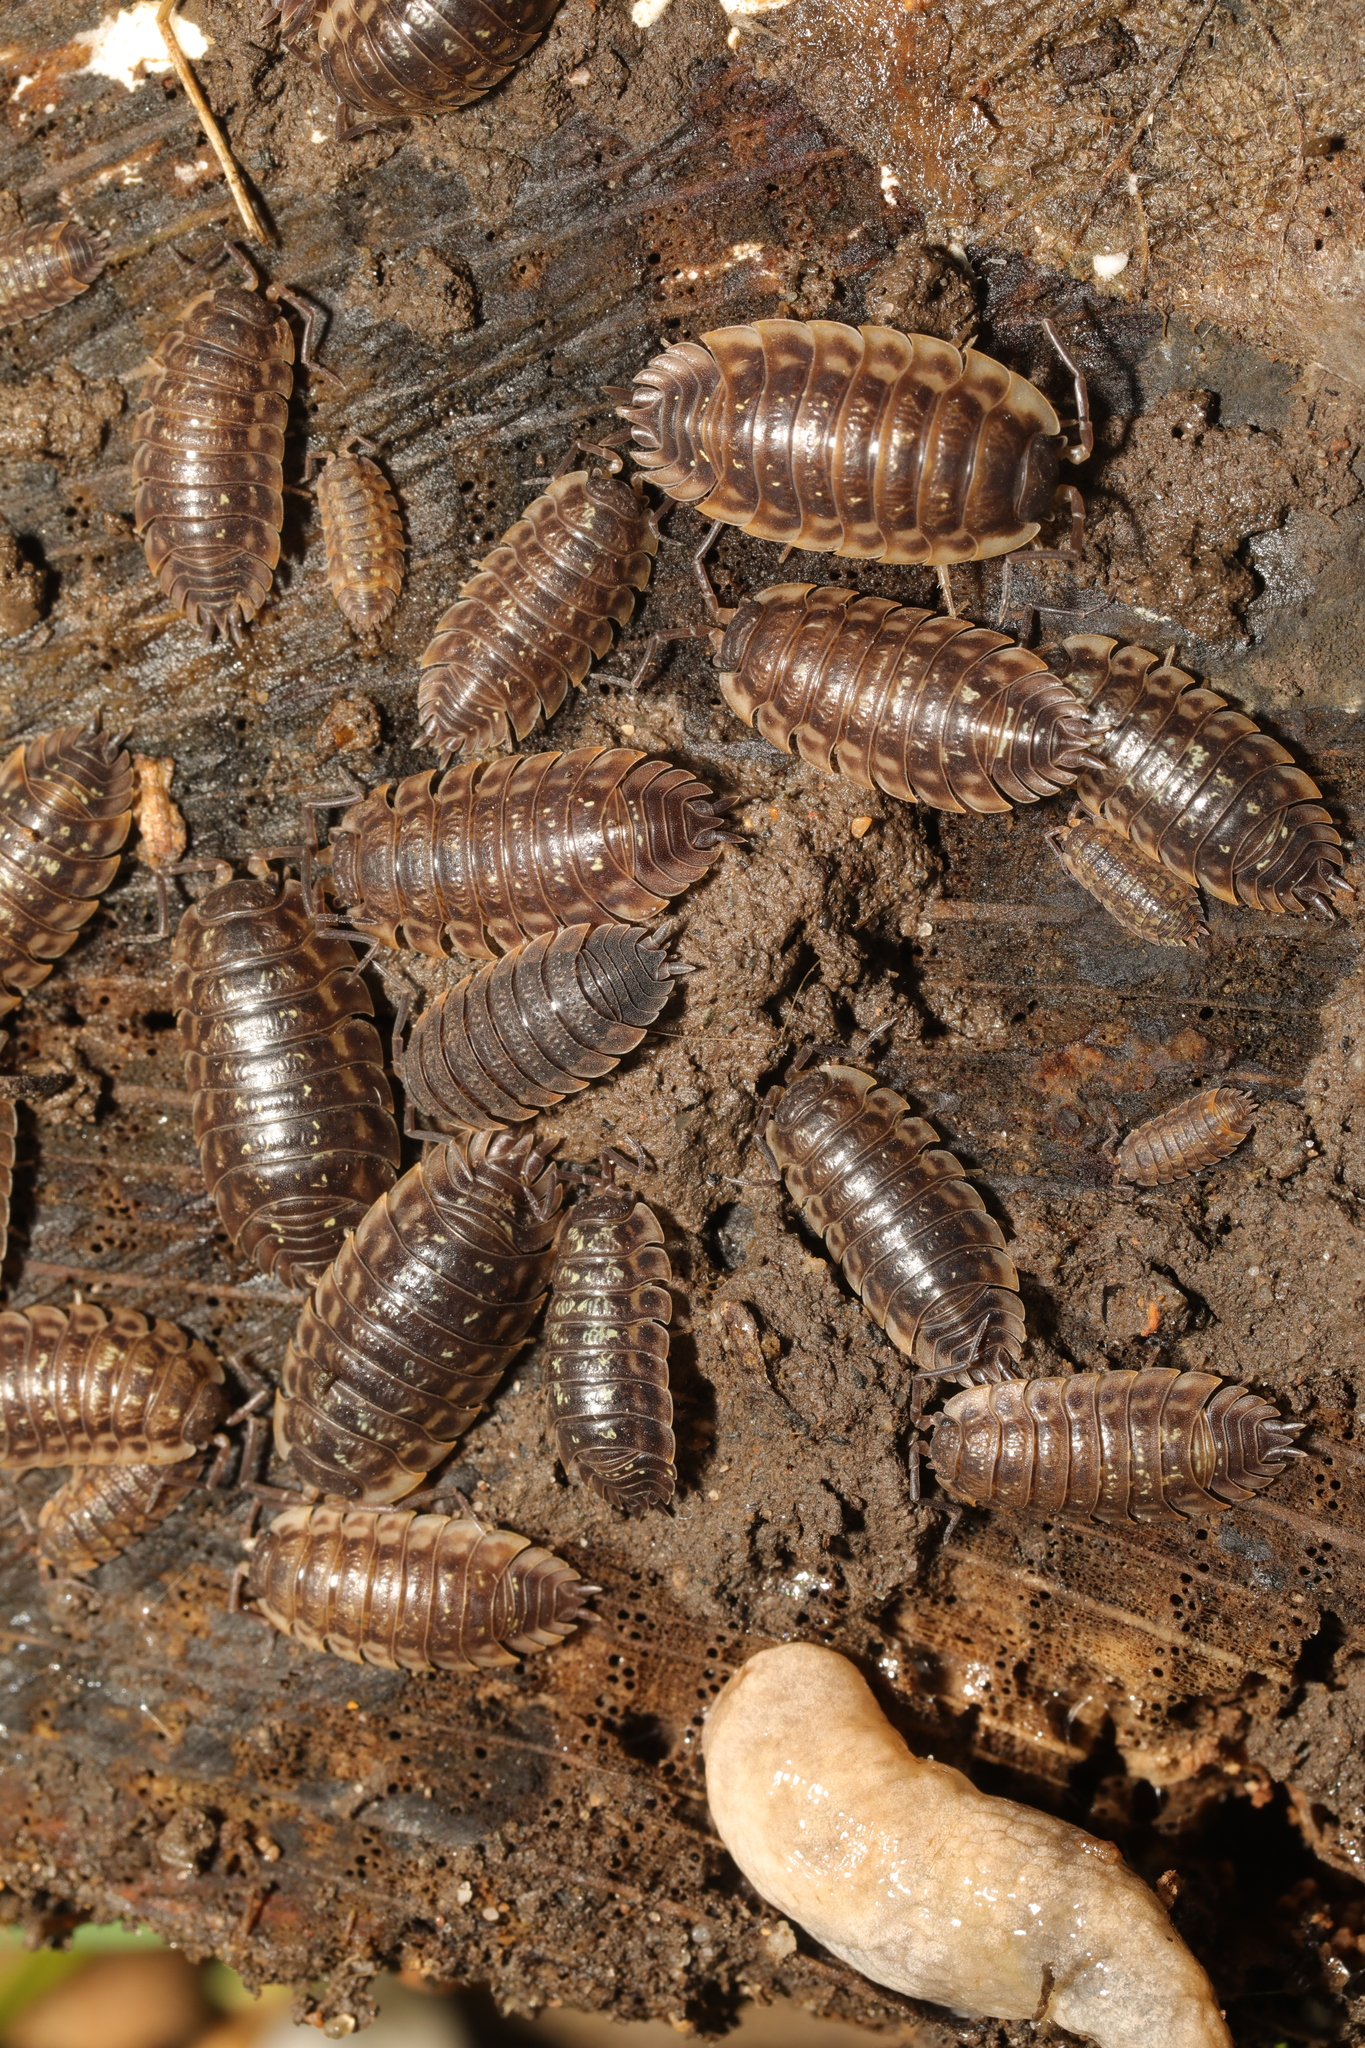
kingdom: Animalia
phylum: Arthropoda
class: Malacostraca
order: Isopoda
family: Oniscidae
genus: Oniscus
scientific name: Oniscus asellus
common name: Common shiny woodlouse
